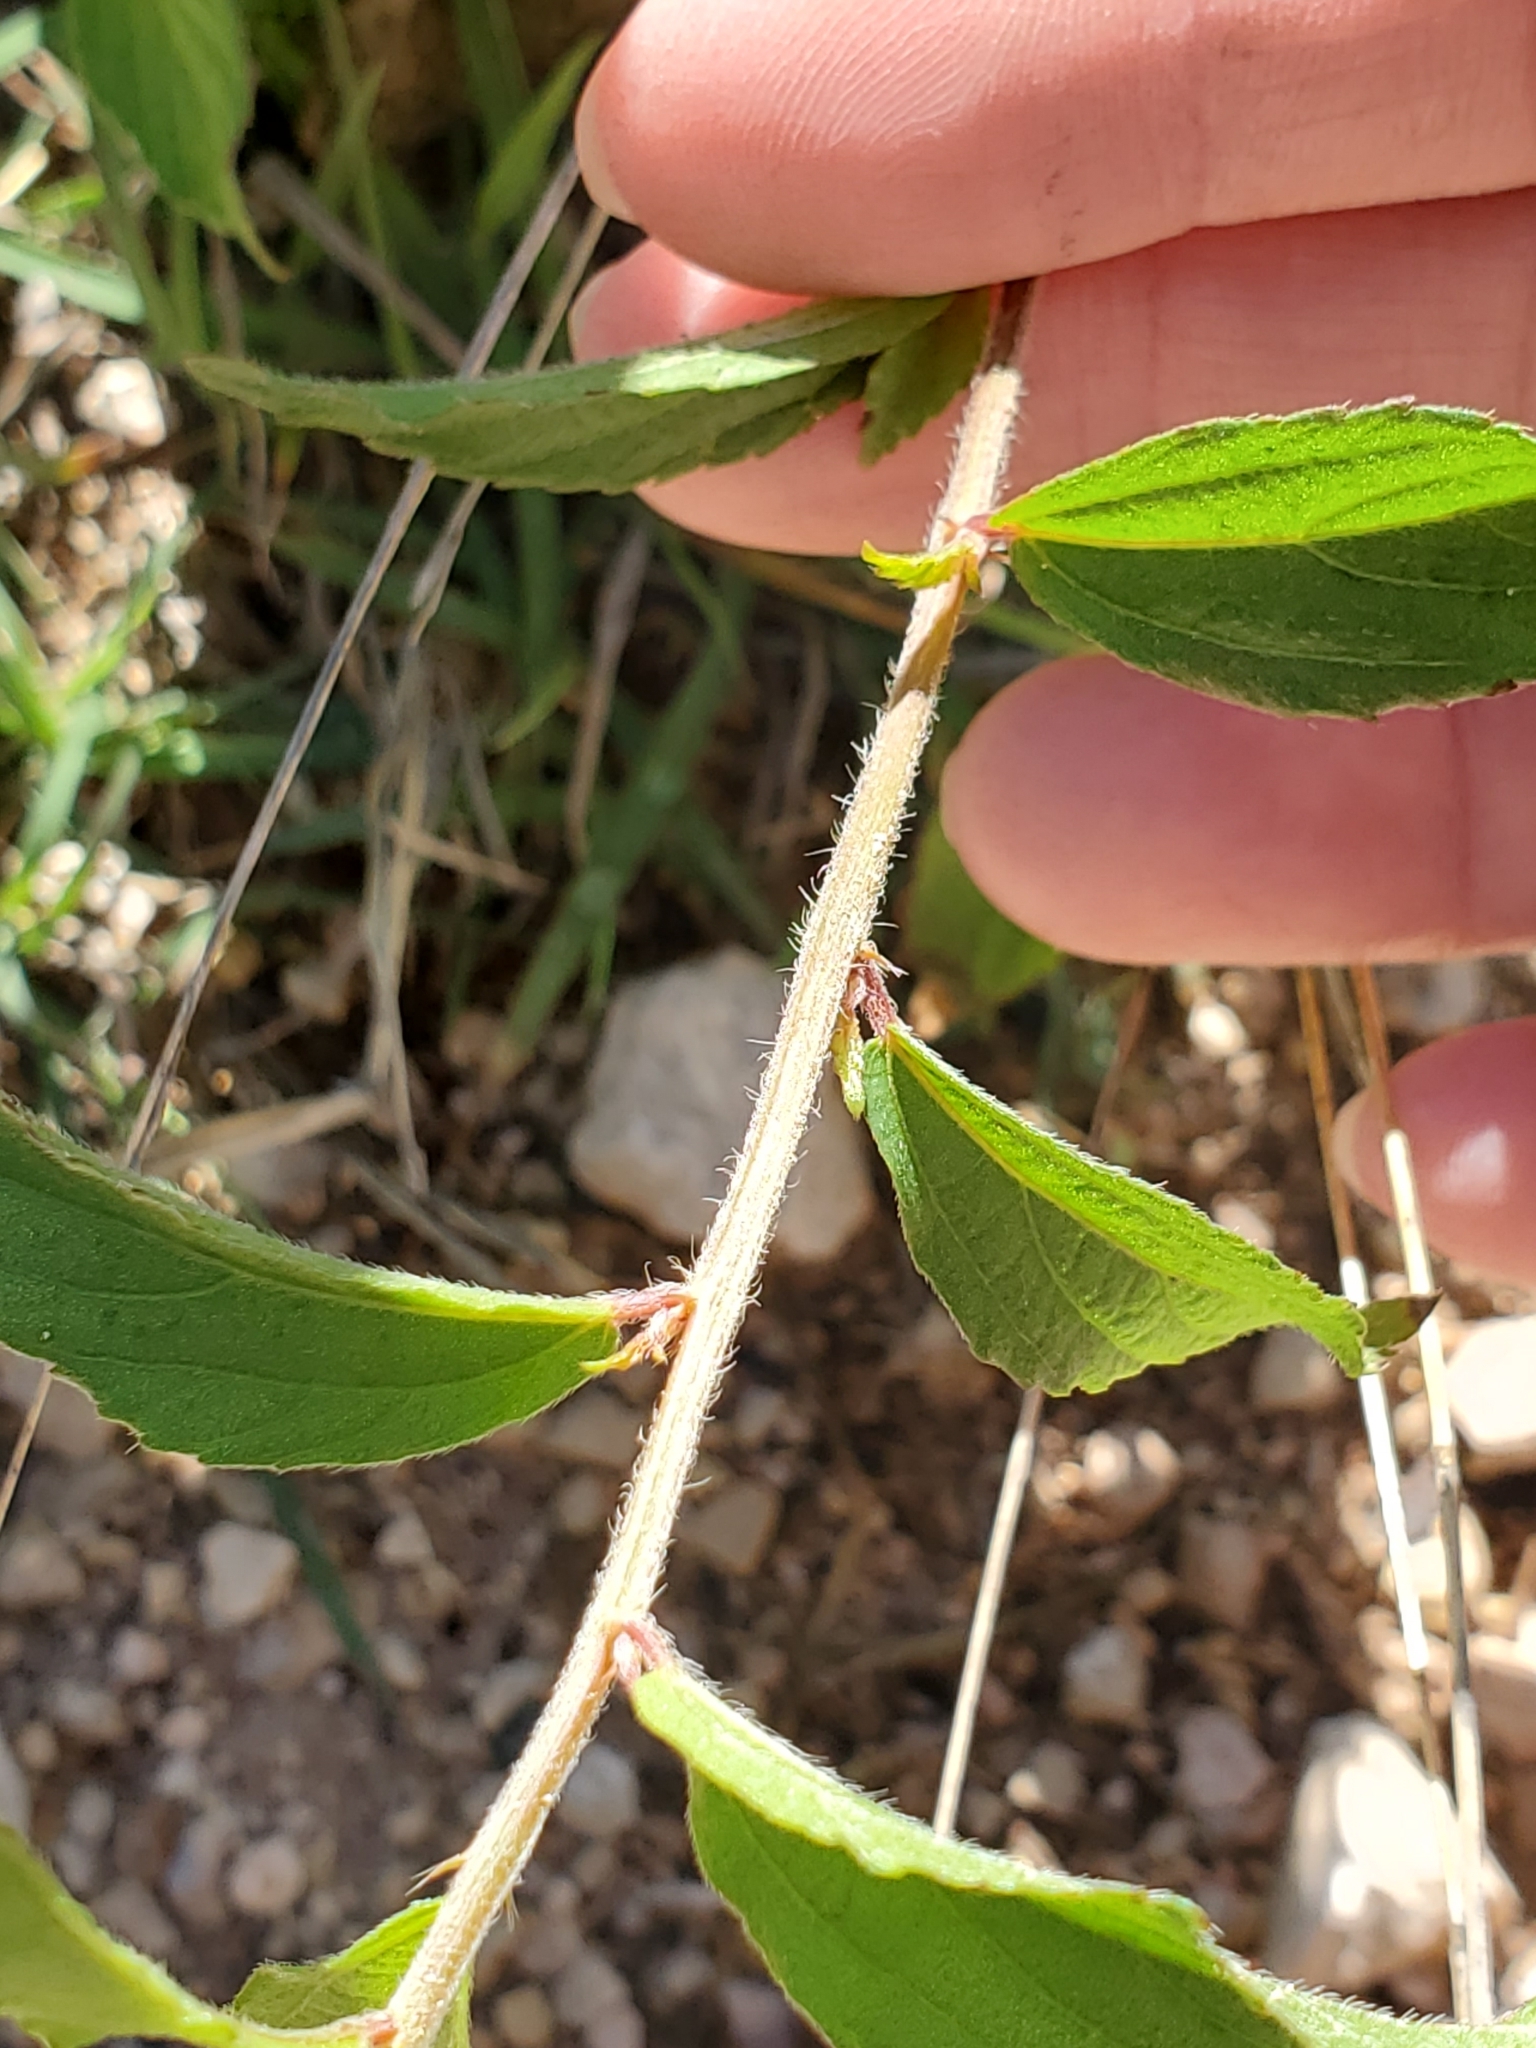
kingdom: Plantae
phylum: Tracheophyta
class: Magnoliopsida
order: Malpighiales
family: Euphorbiaceae
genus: Acalypha
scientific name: Acalypha phleoides
